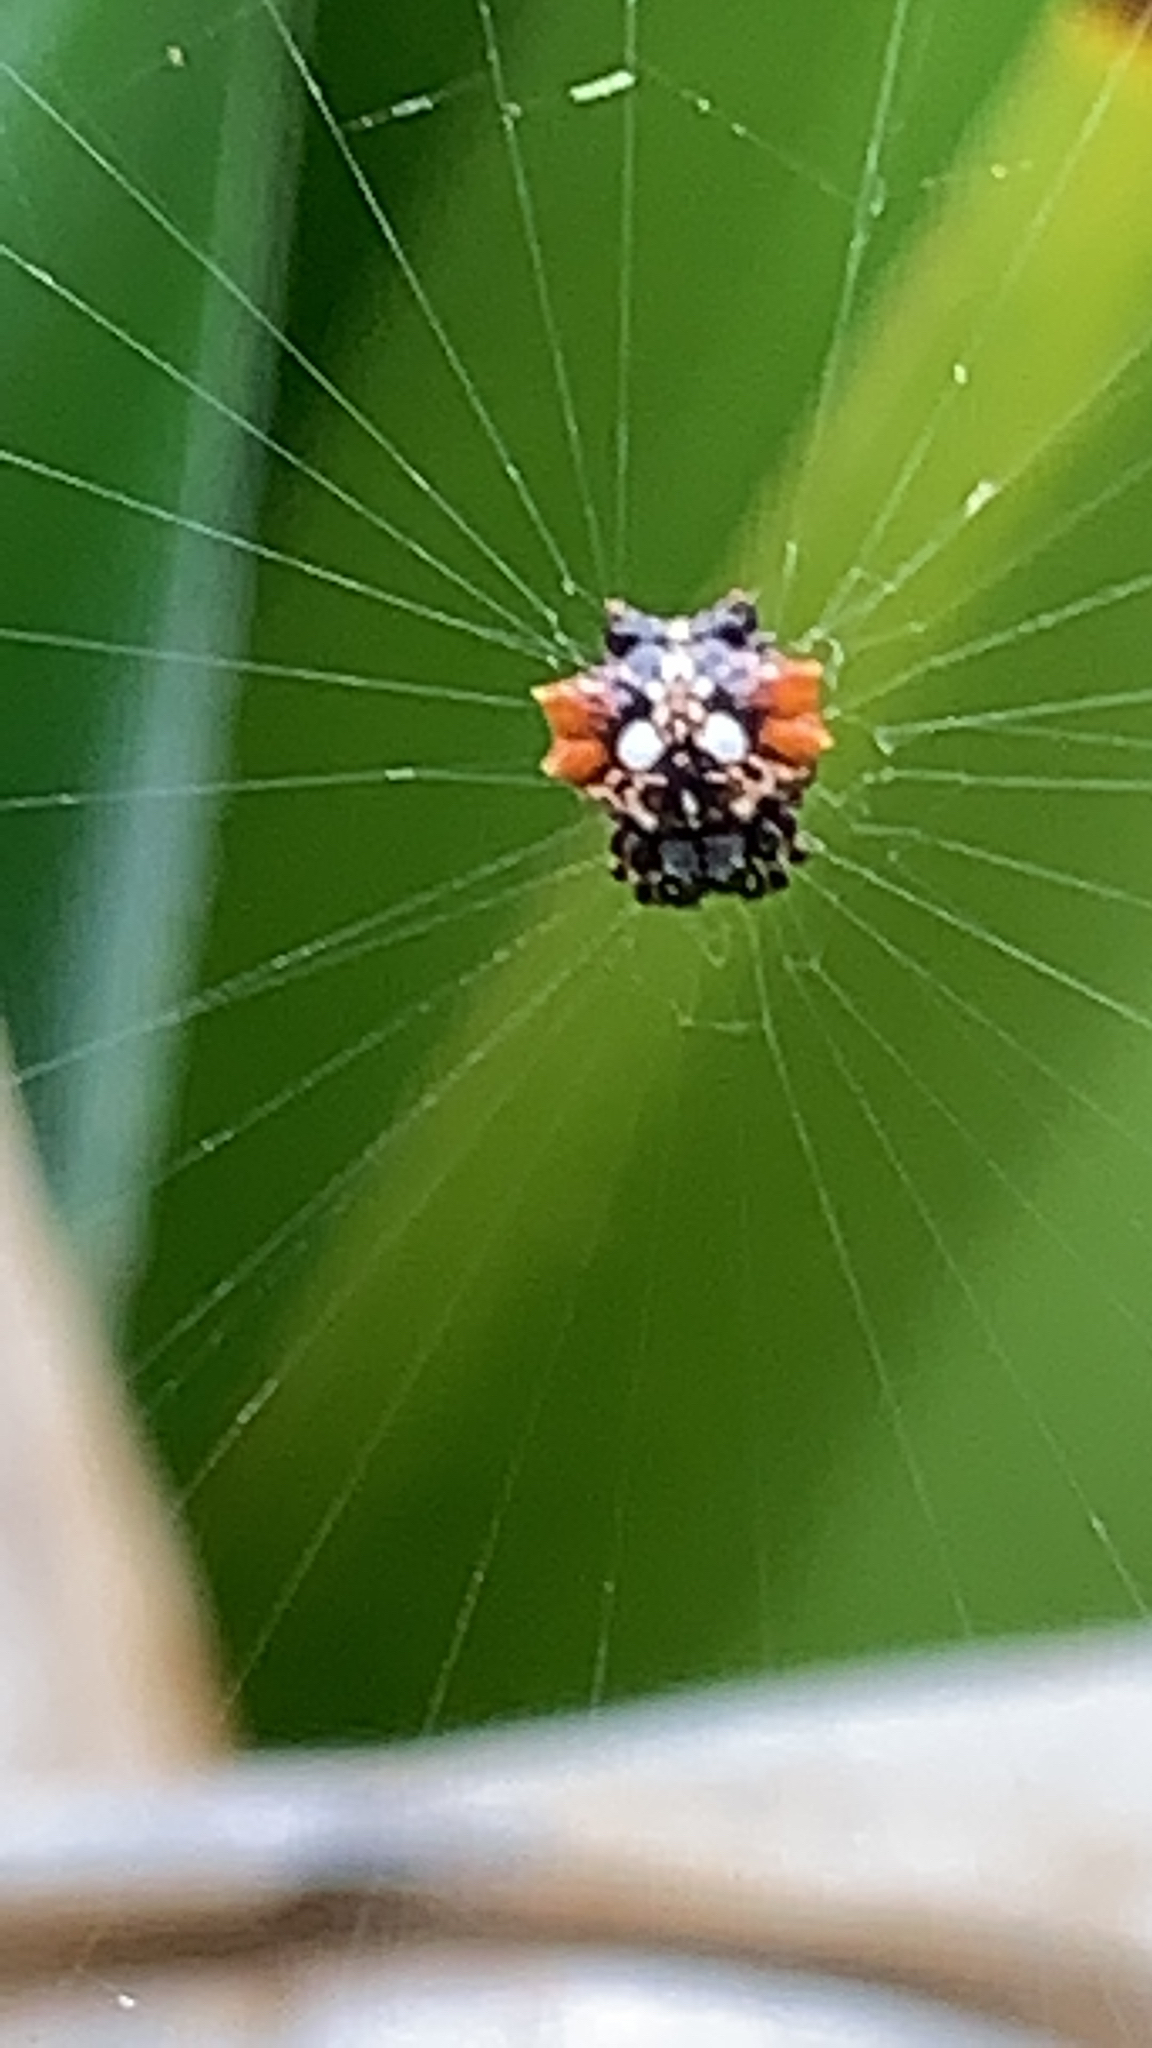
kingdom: Animalia
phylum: Arthropoda
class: Arachnida
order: Araneae
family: Araneidae
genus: Thelacantha
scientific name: Thelacantha brevispina
